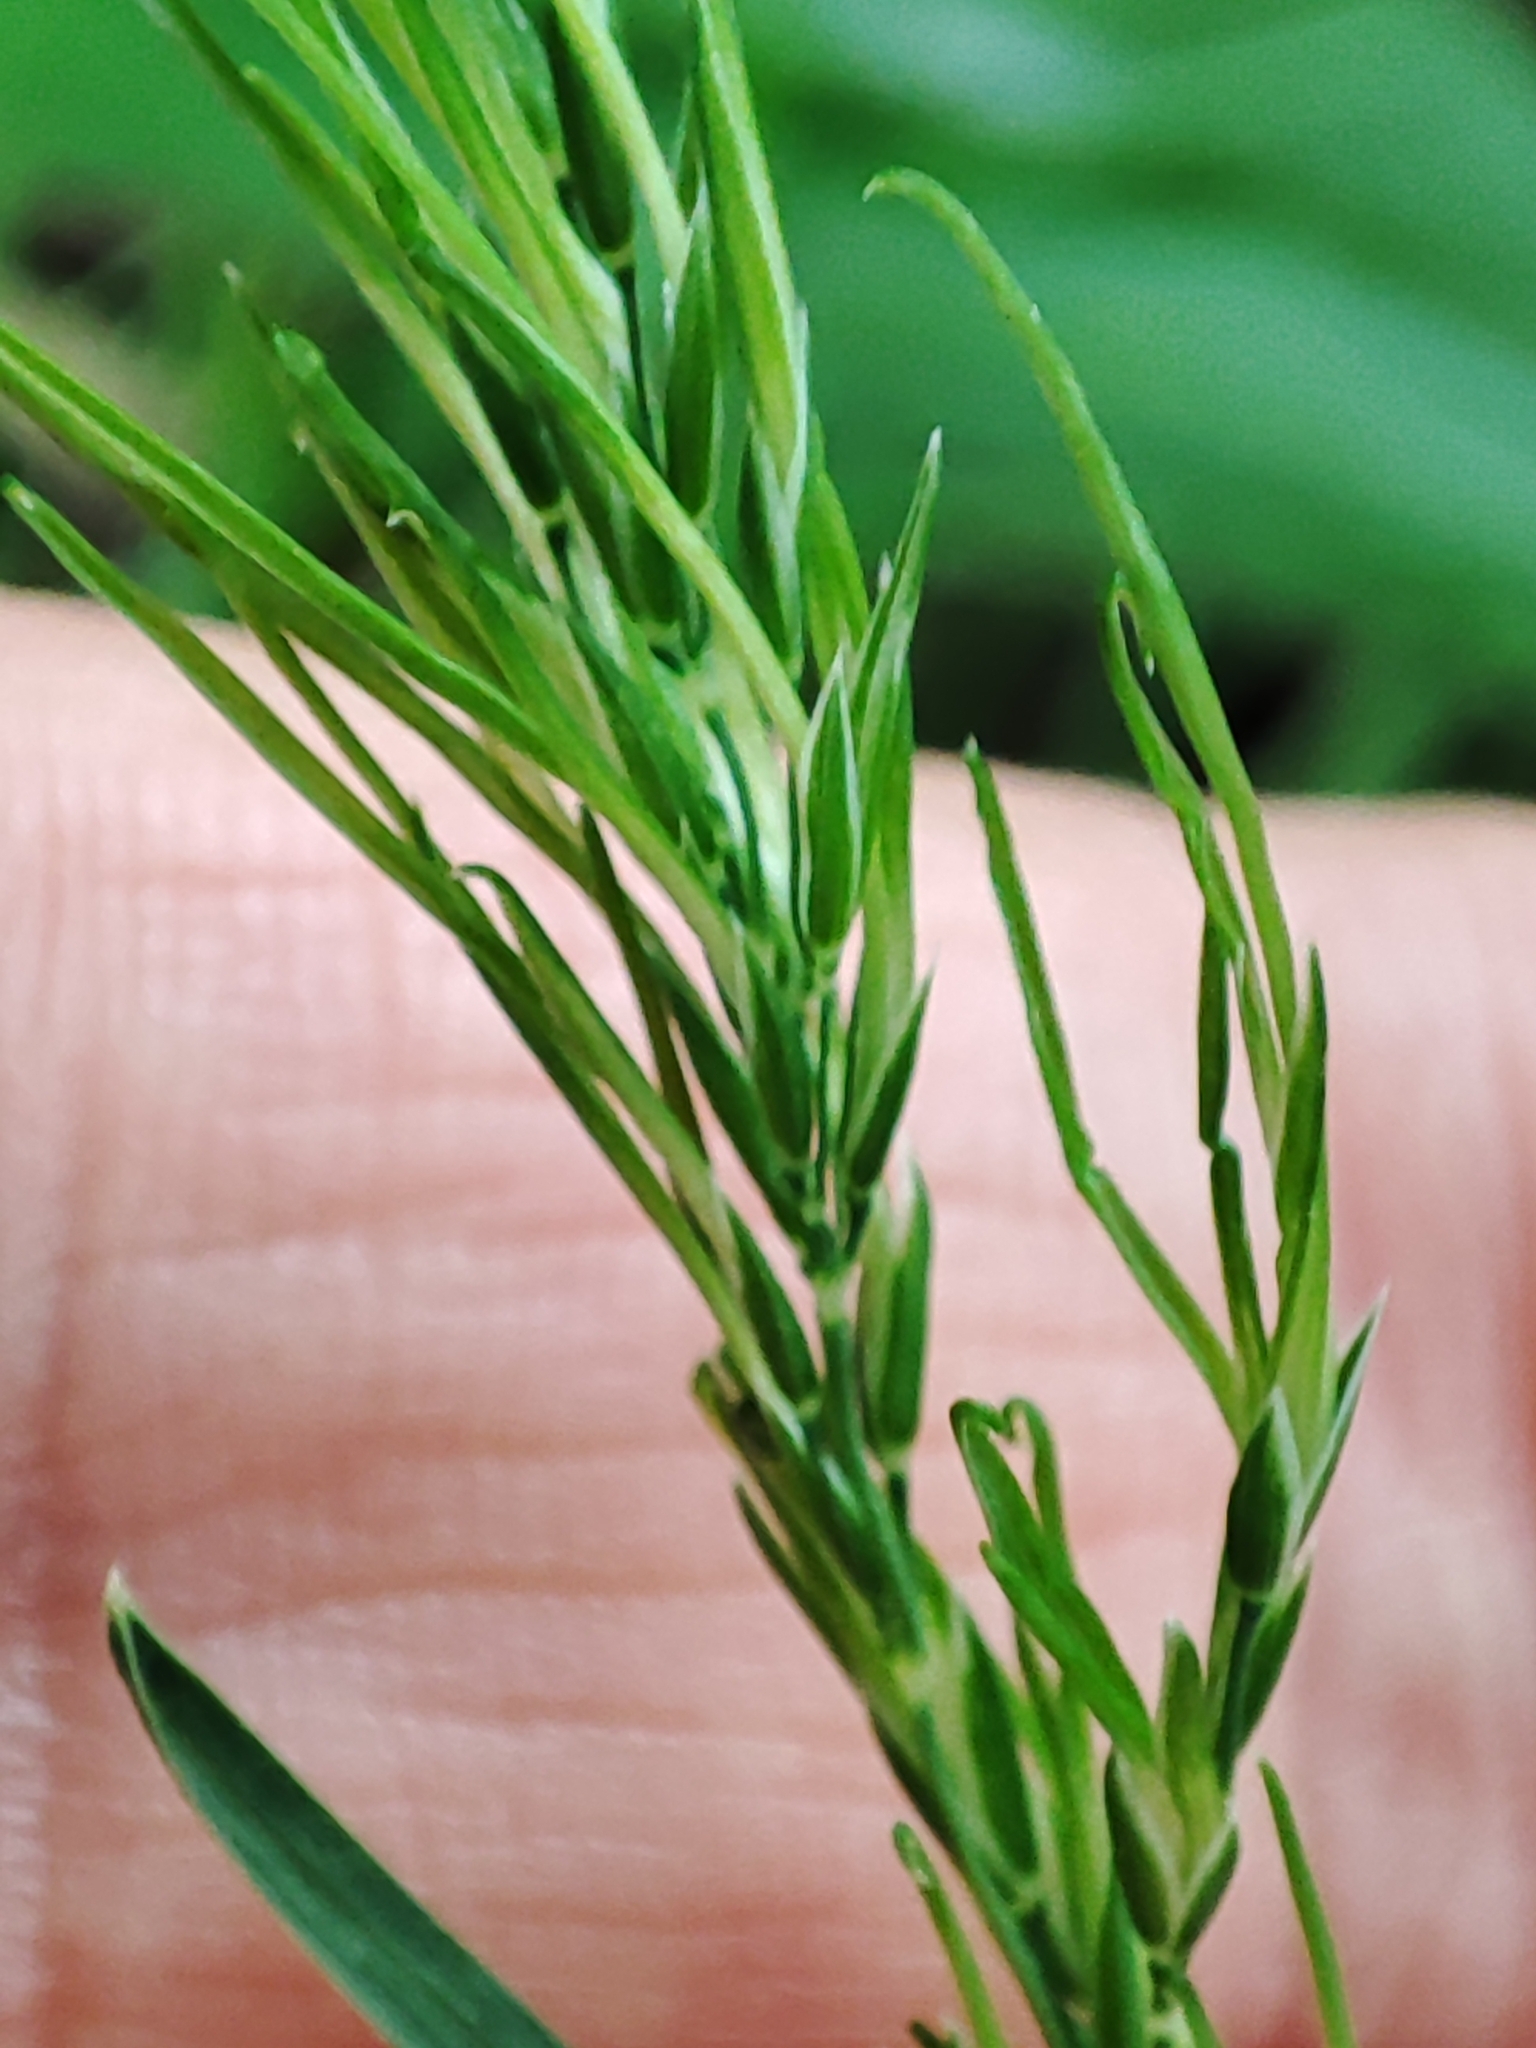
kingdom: Plantae
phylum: Tracheophyta
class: Liliopsida
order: Poales
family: Poaceae
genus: Poa
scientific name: Poa bulbosa
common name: Bulbous bluegrass
